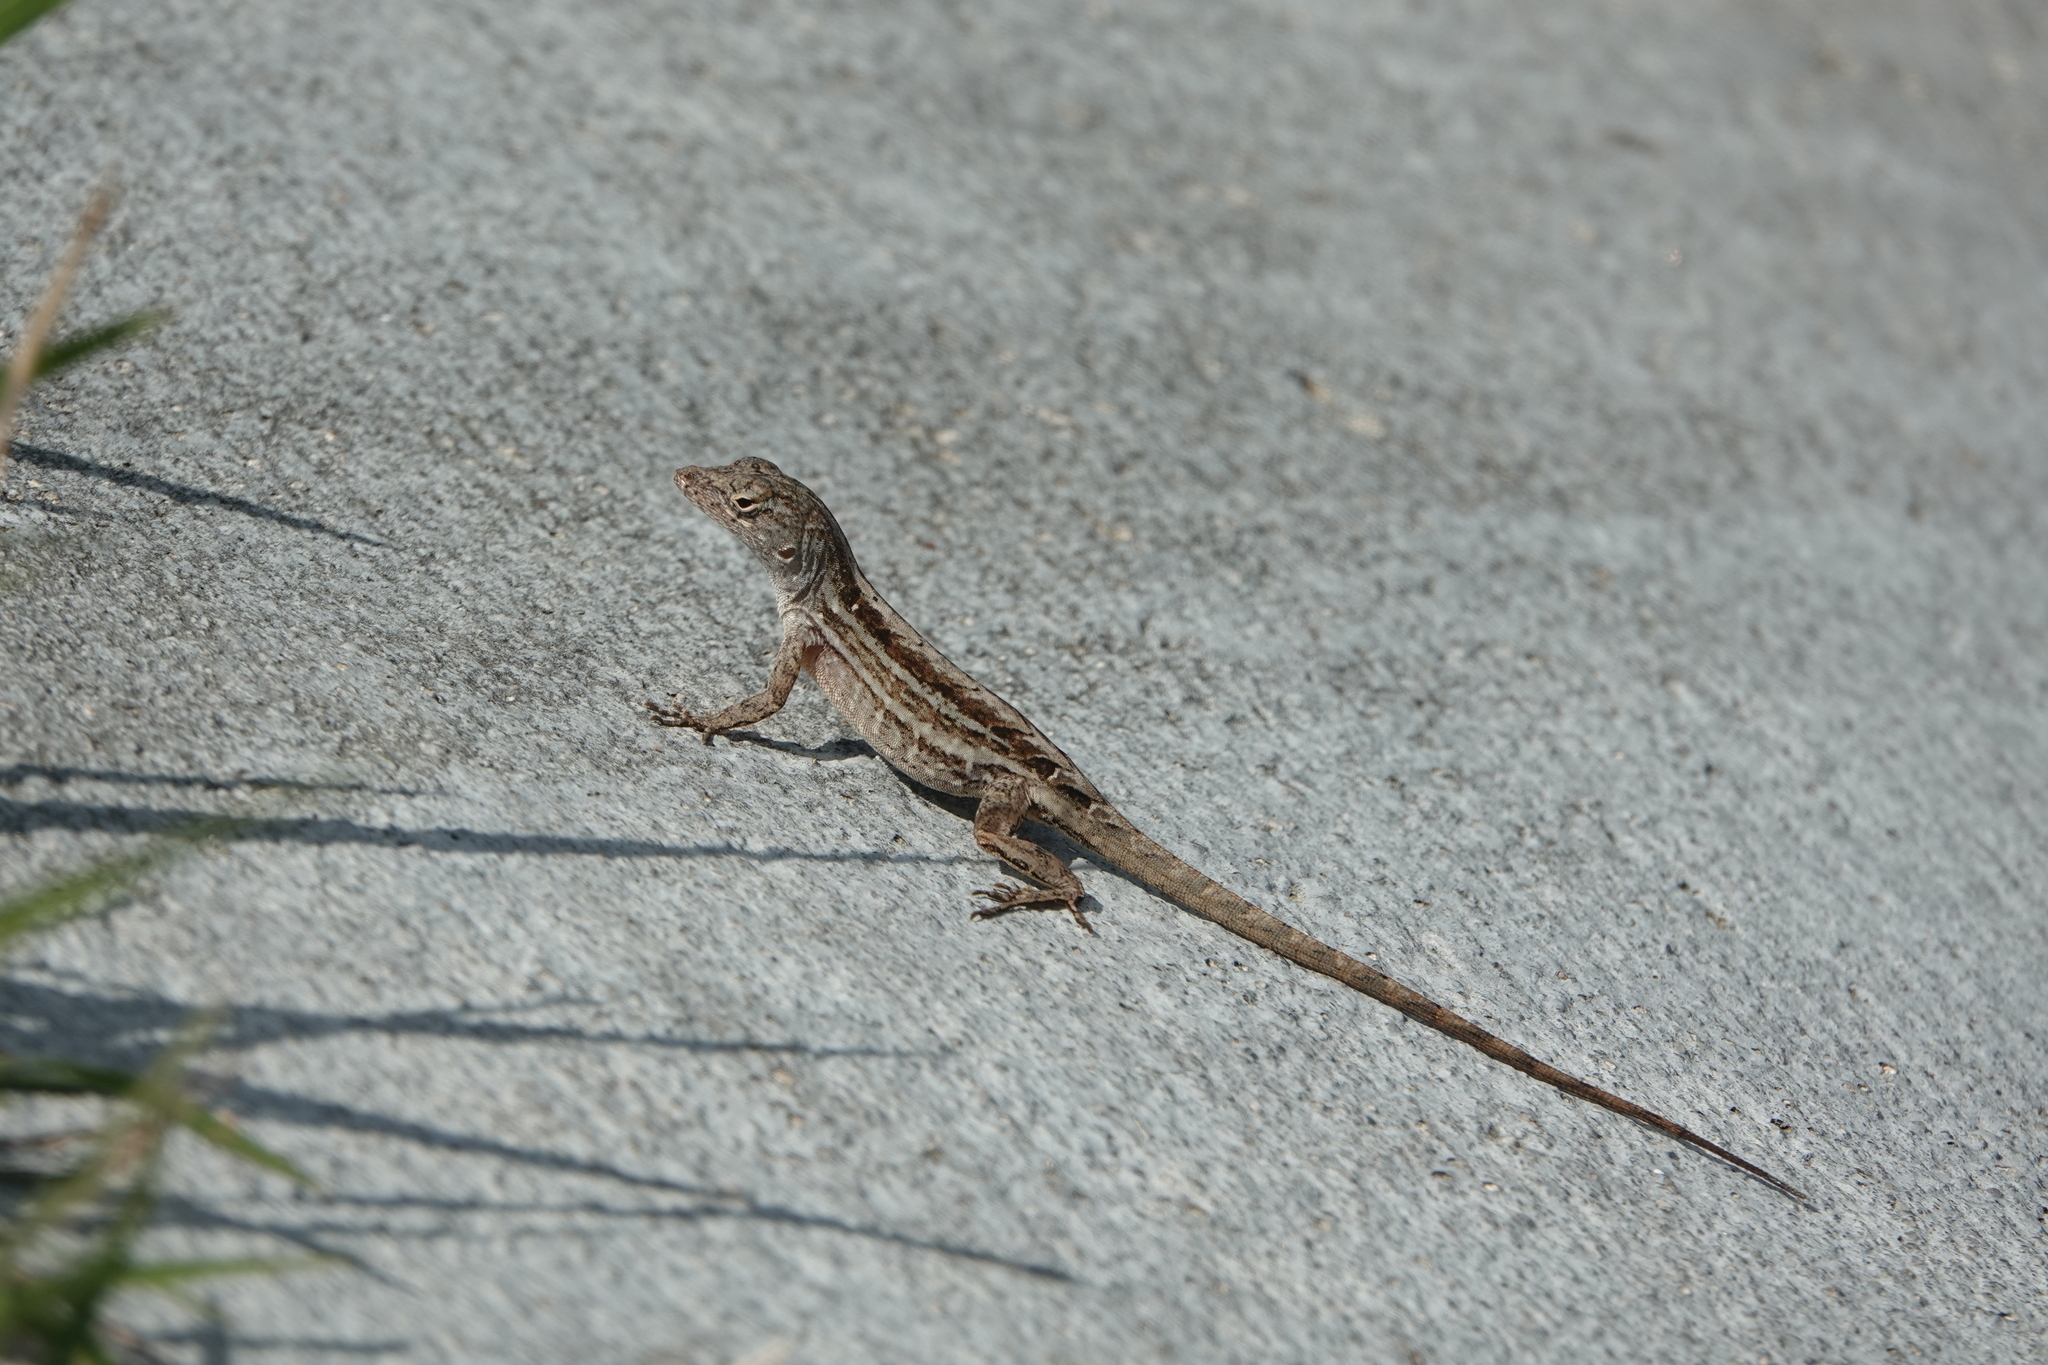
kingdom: Animalia
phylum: Chordata
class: Squamata
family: Dactyloidae
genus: Anolis
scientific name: Anolis sagrei
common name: Brown anole
